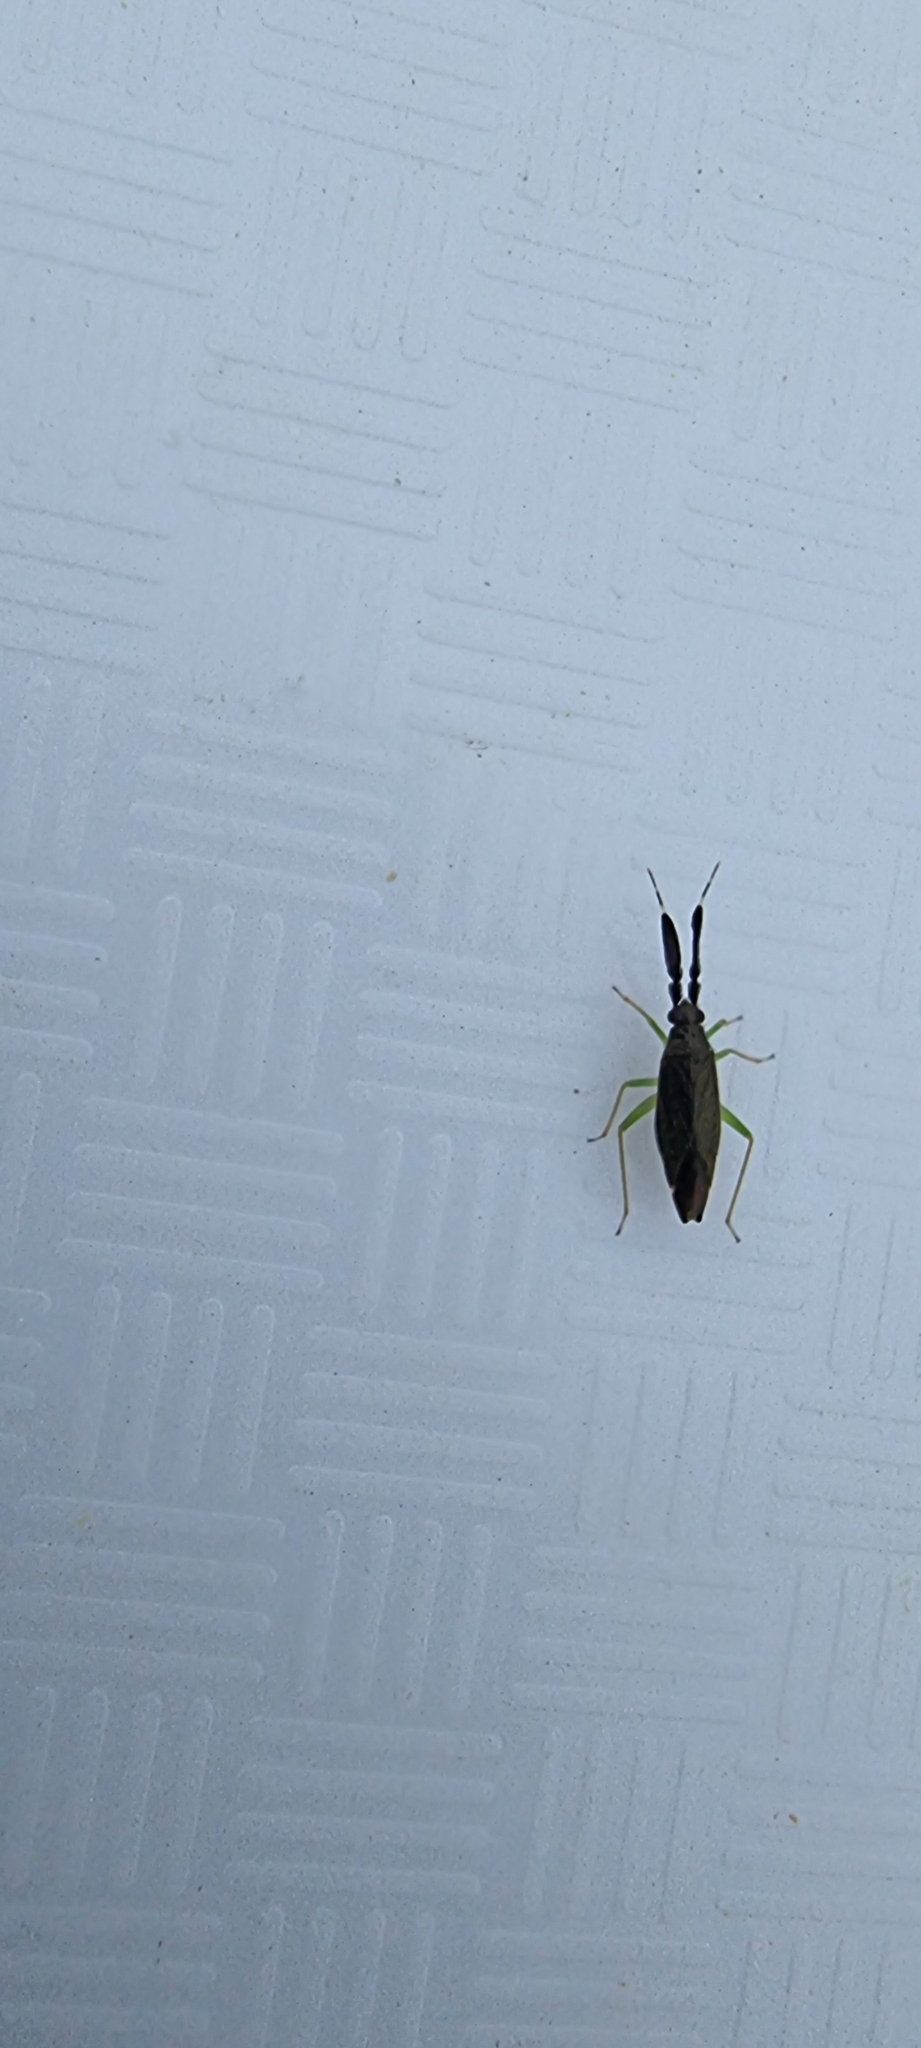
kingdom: Animalia
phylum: Arthropoda
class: Insecta
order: Hemiptera
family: Miridae
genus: Heterotoma
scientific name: Heterotoma planicornis
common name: Plant bug
